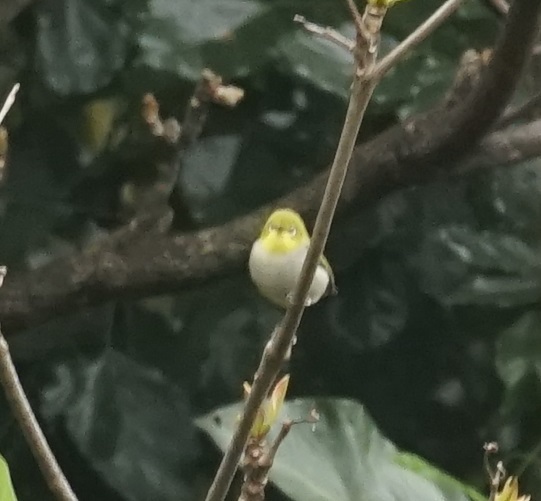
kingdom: Animalia
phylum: Chordata
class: Aves
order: Passeriformes
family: Zosteropidae
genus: Zosterops
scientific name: Zosterops simplex
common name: Swinhoe's white-eye
